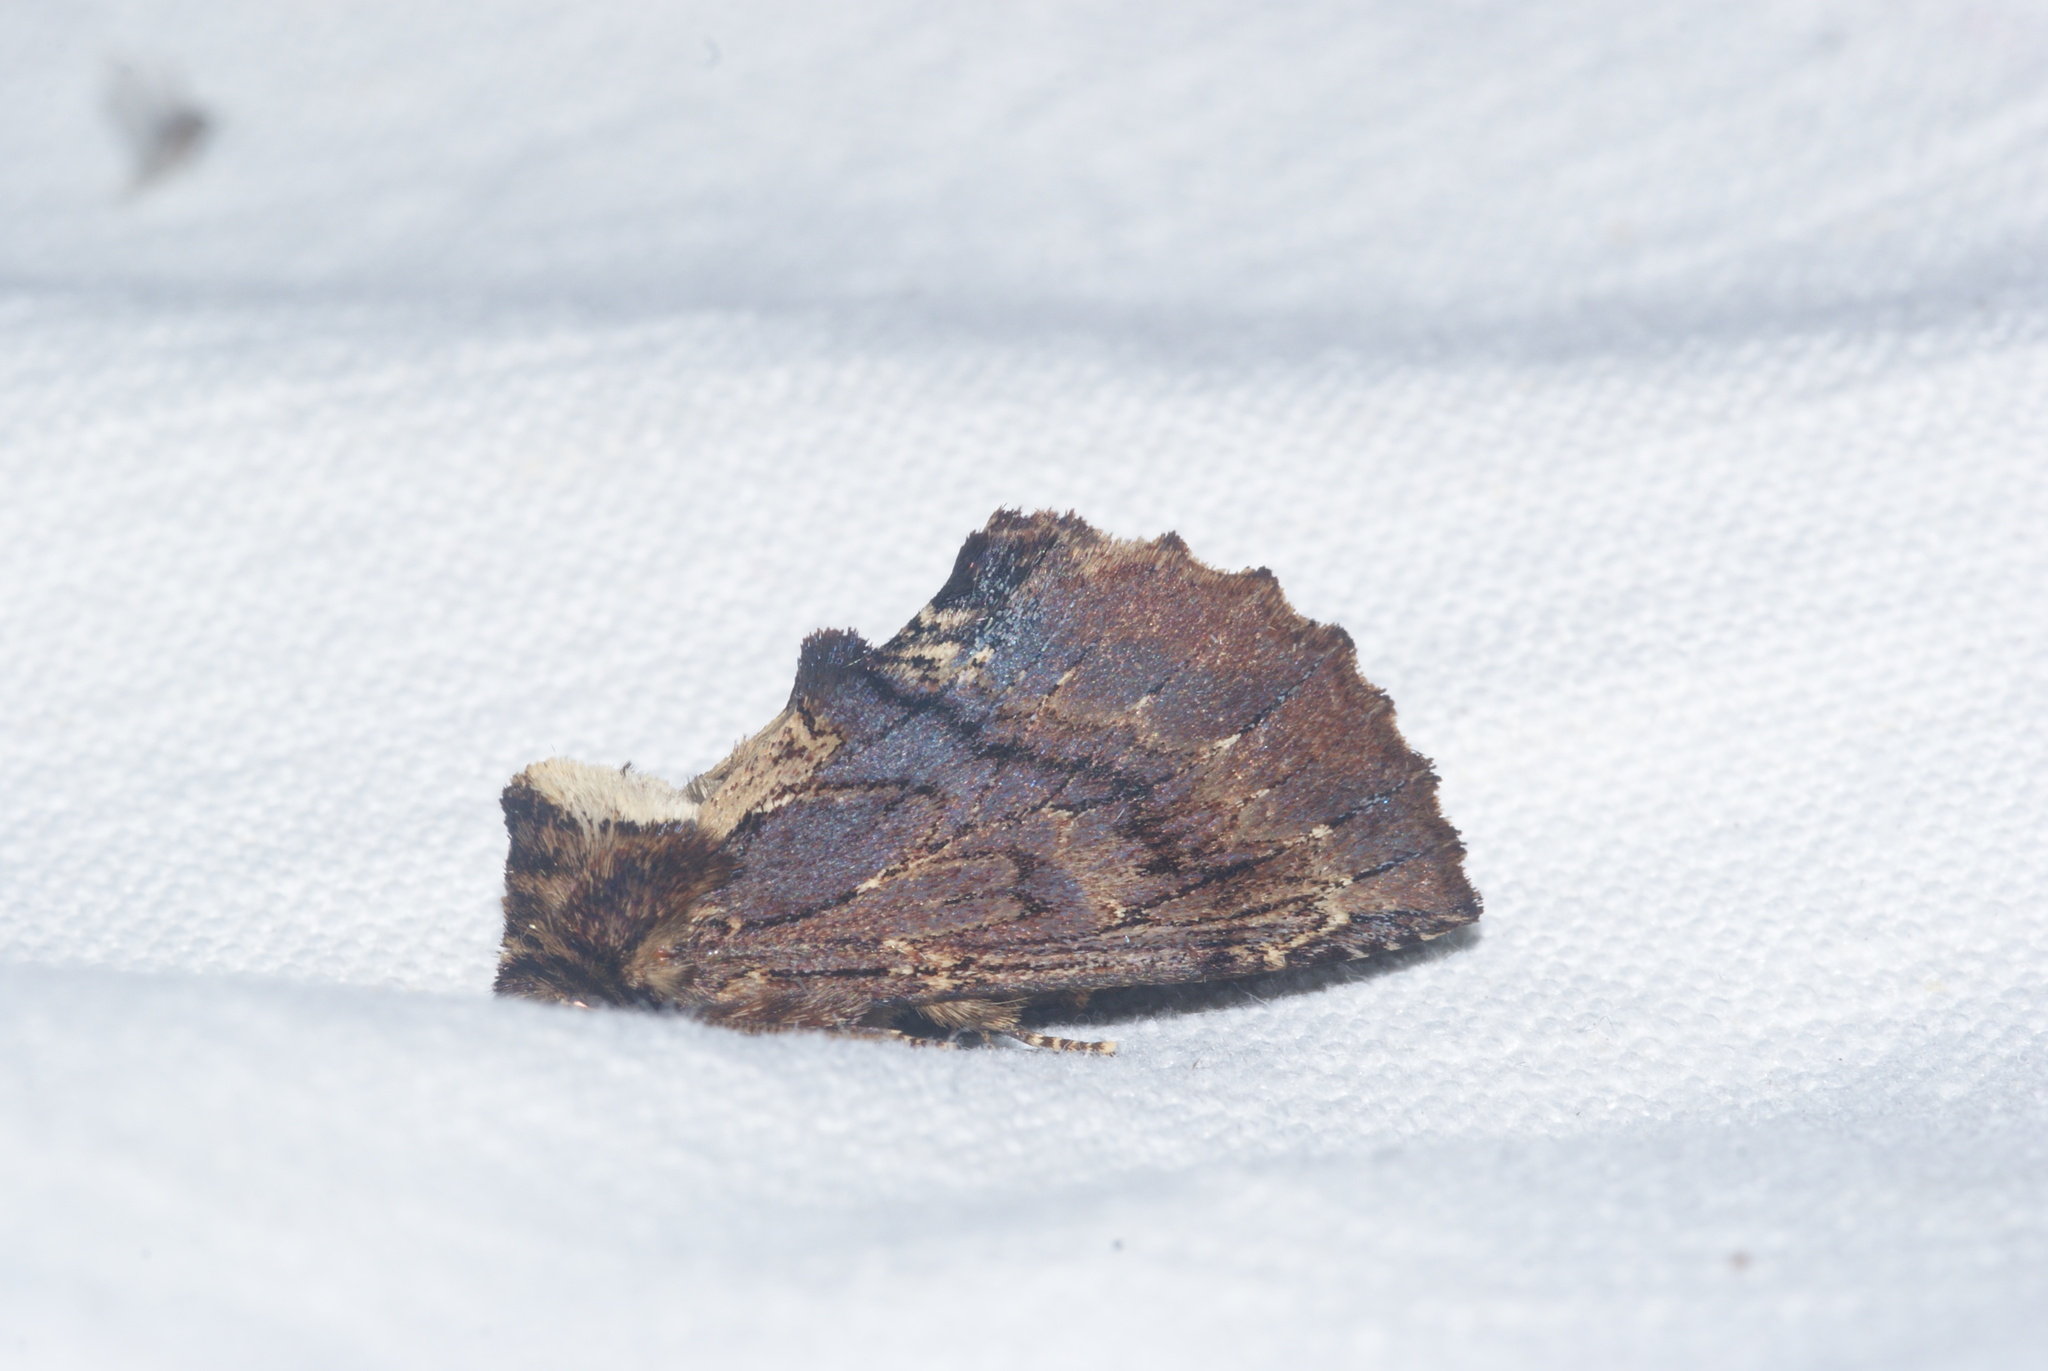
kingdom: Animalia
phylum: Arthropoda
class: Insecta
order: Lepidoptera
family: Notodontidae
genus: Ptilodon
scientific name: Ptilodon capucina
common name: Coxcomb prominent
